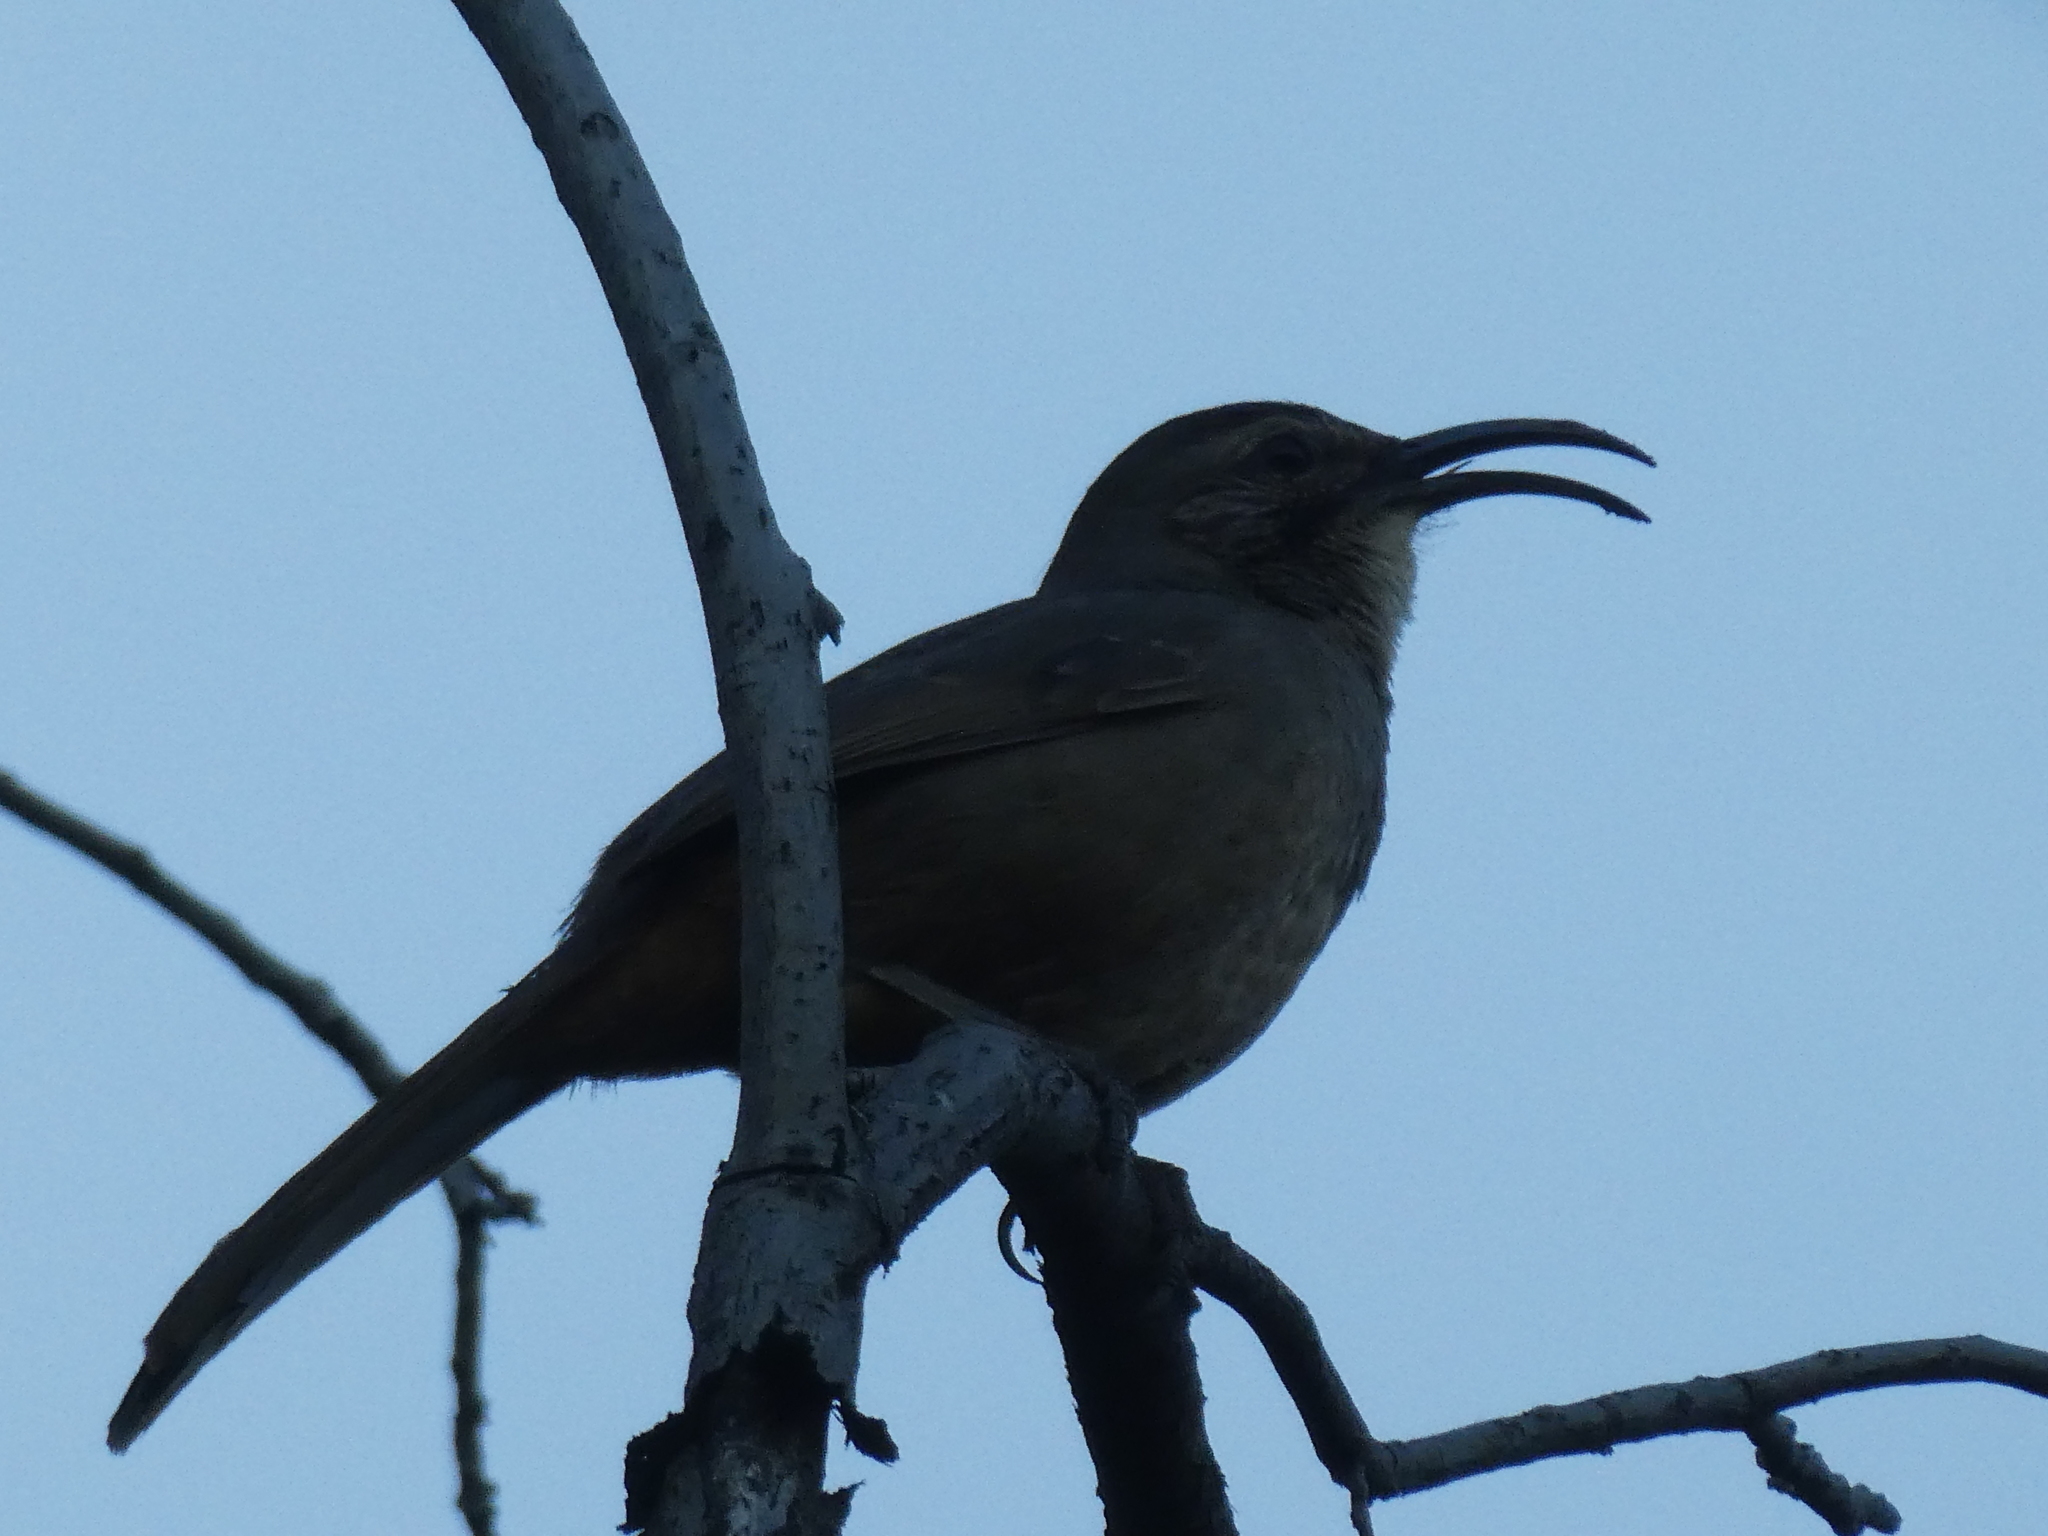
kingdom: Animalia
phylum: Chordata
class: Aves
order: Passeriformes
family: Mimidae
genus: Toxostoma
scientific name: Toxostoma redivivum
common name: California thrasher
